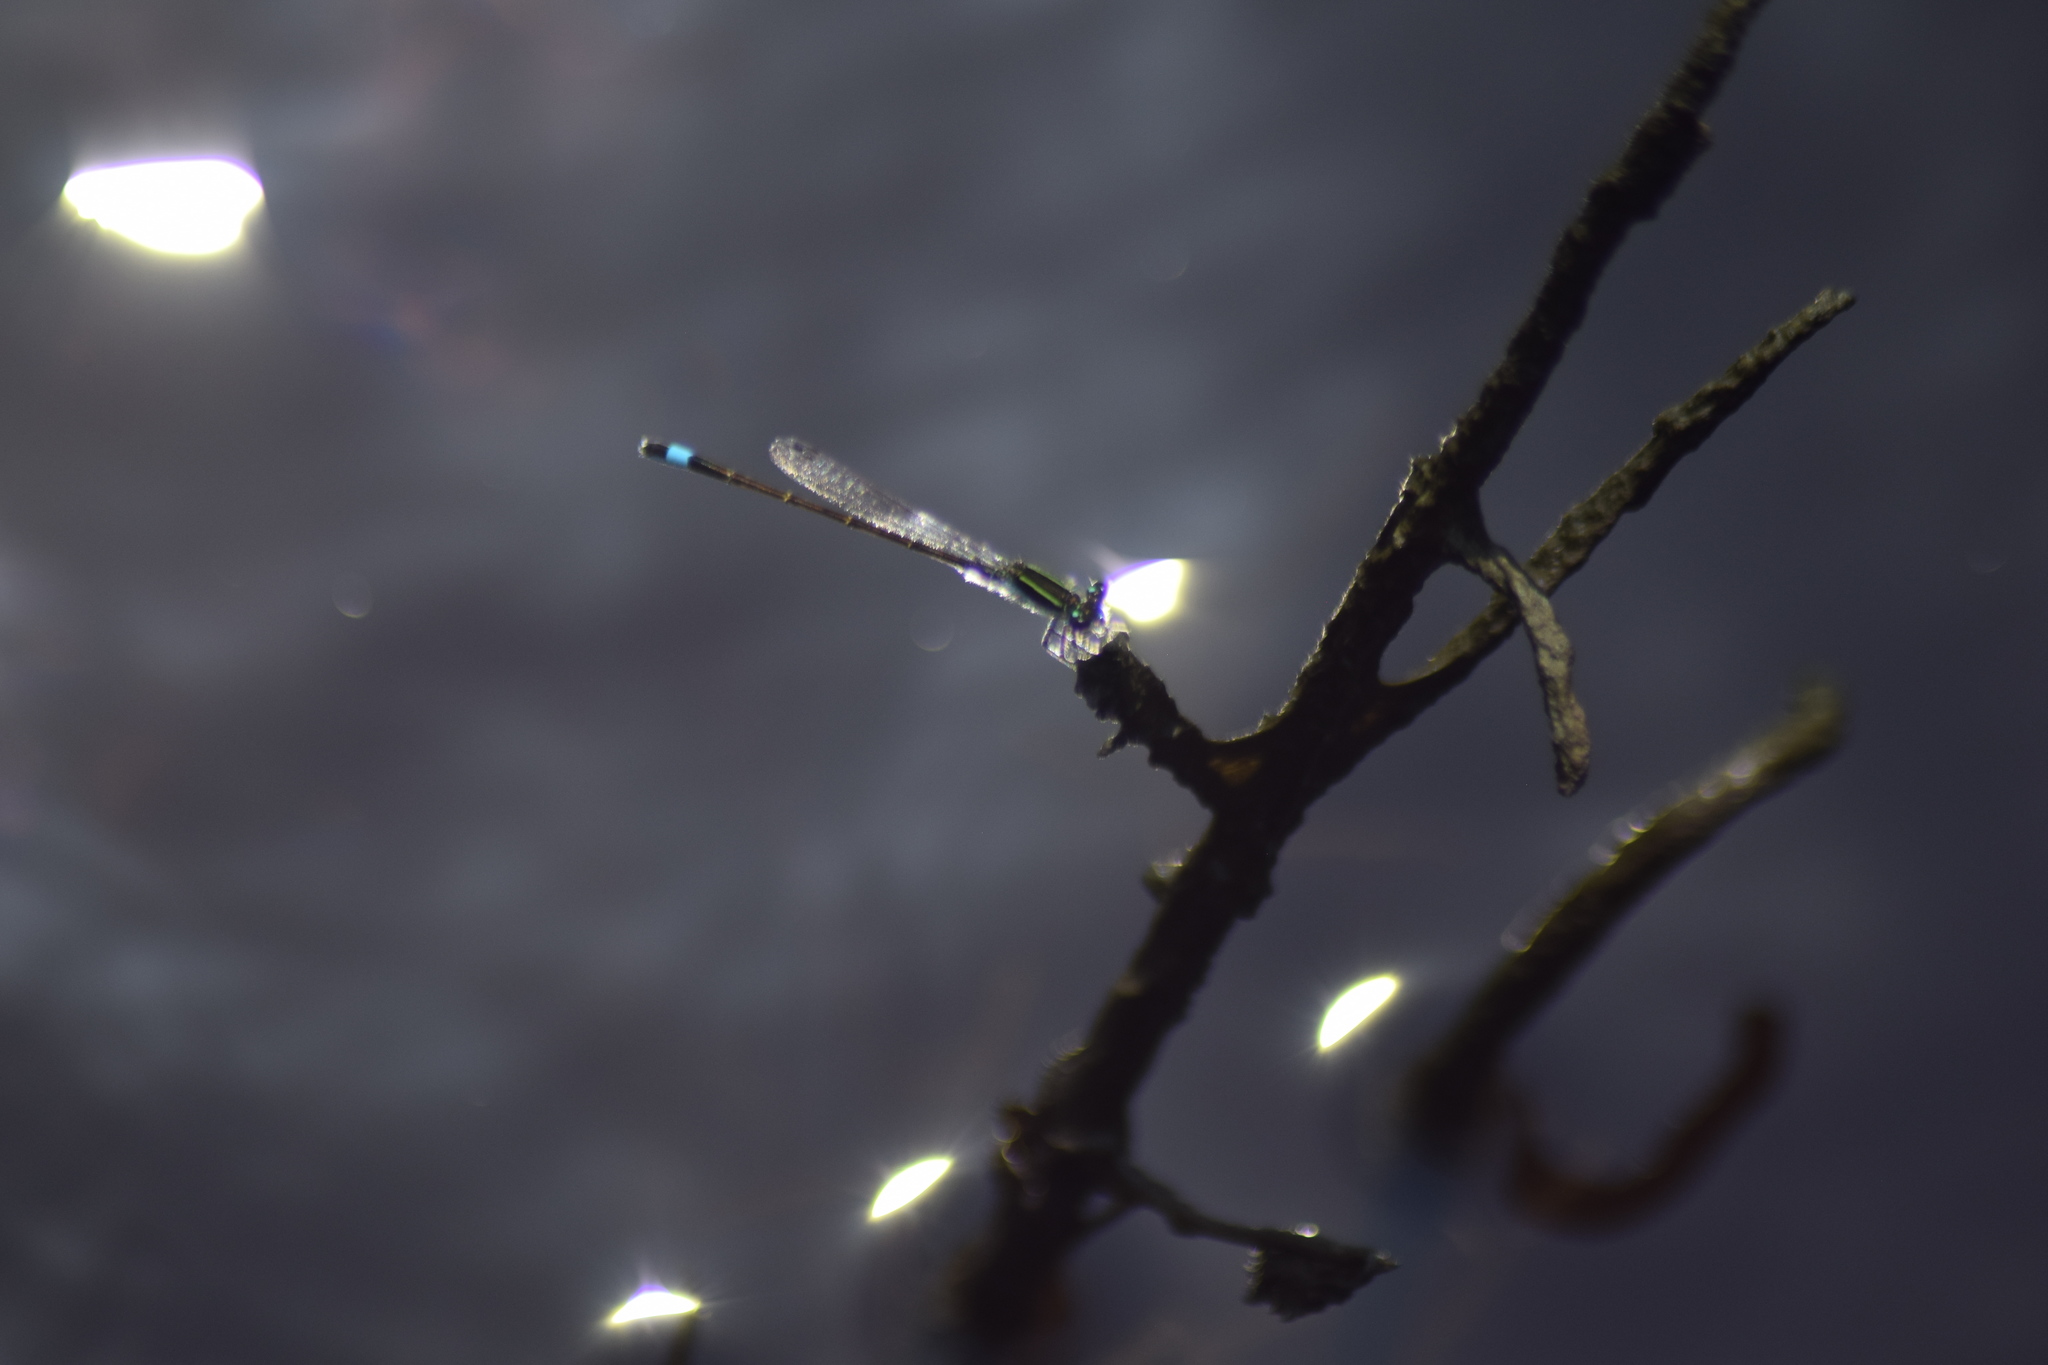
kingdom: Animalia
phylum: Arthropoda
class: Insecta
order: Odonata
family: Coenagrionidae
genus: Ischnura
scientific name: Ischnura ramburii
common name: Rambur's forktail
